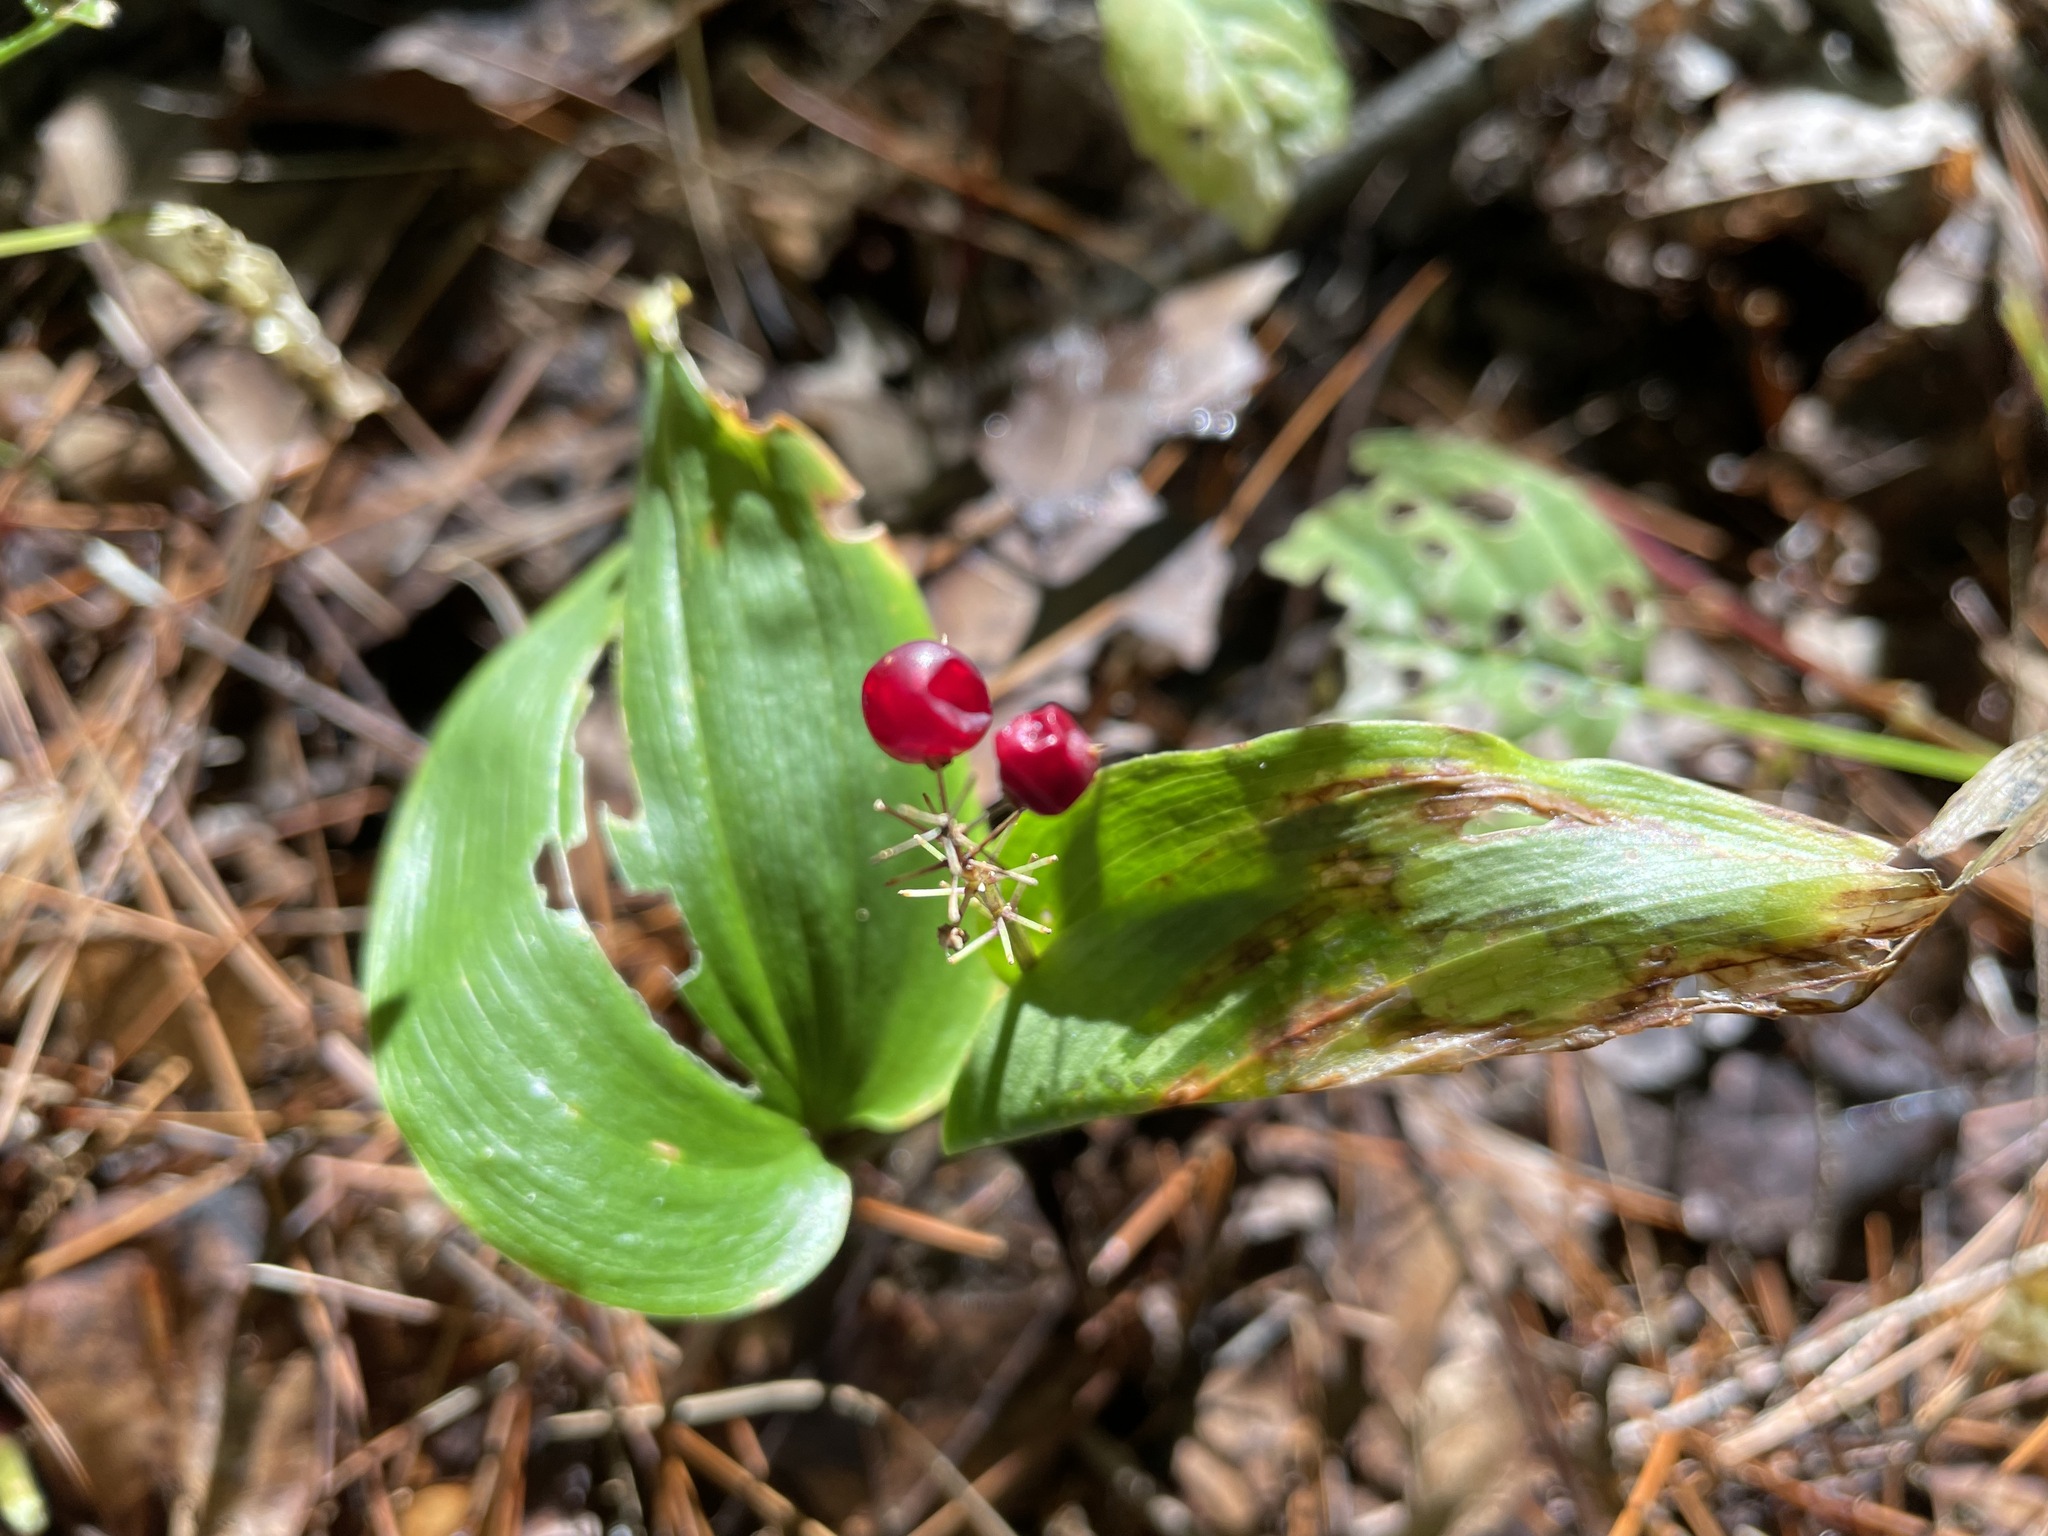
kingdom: Plantae
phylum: Tracheophyta
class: Liliopsida
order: Asparagales
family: Asparagaceae
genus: Maianthemum
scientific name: Maianthemum canadense
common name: False lily-of-the-valley
